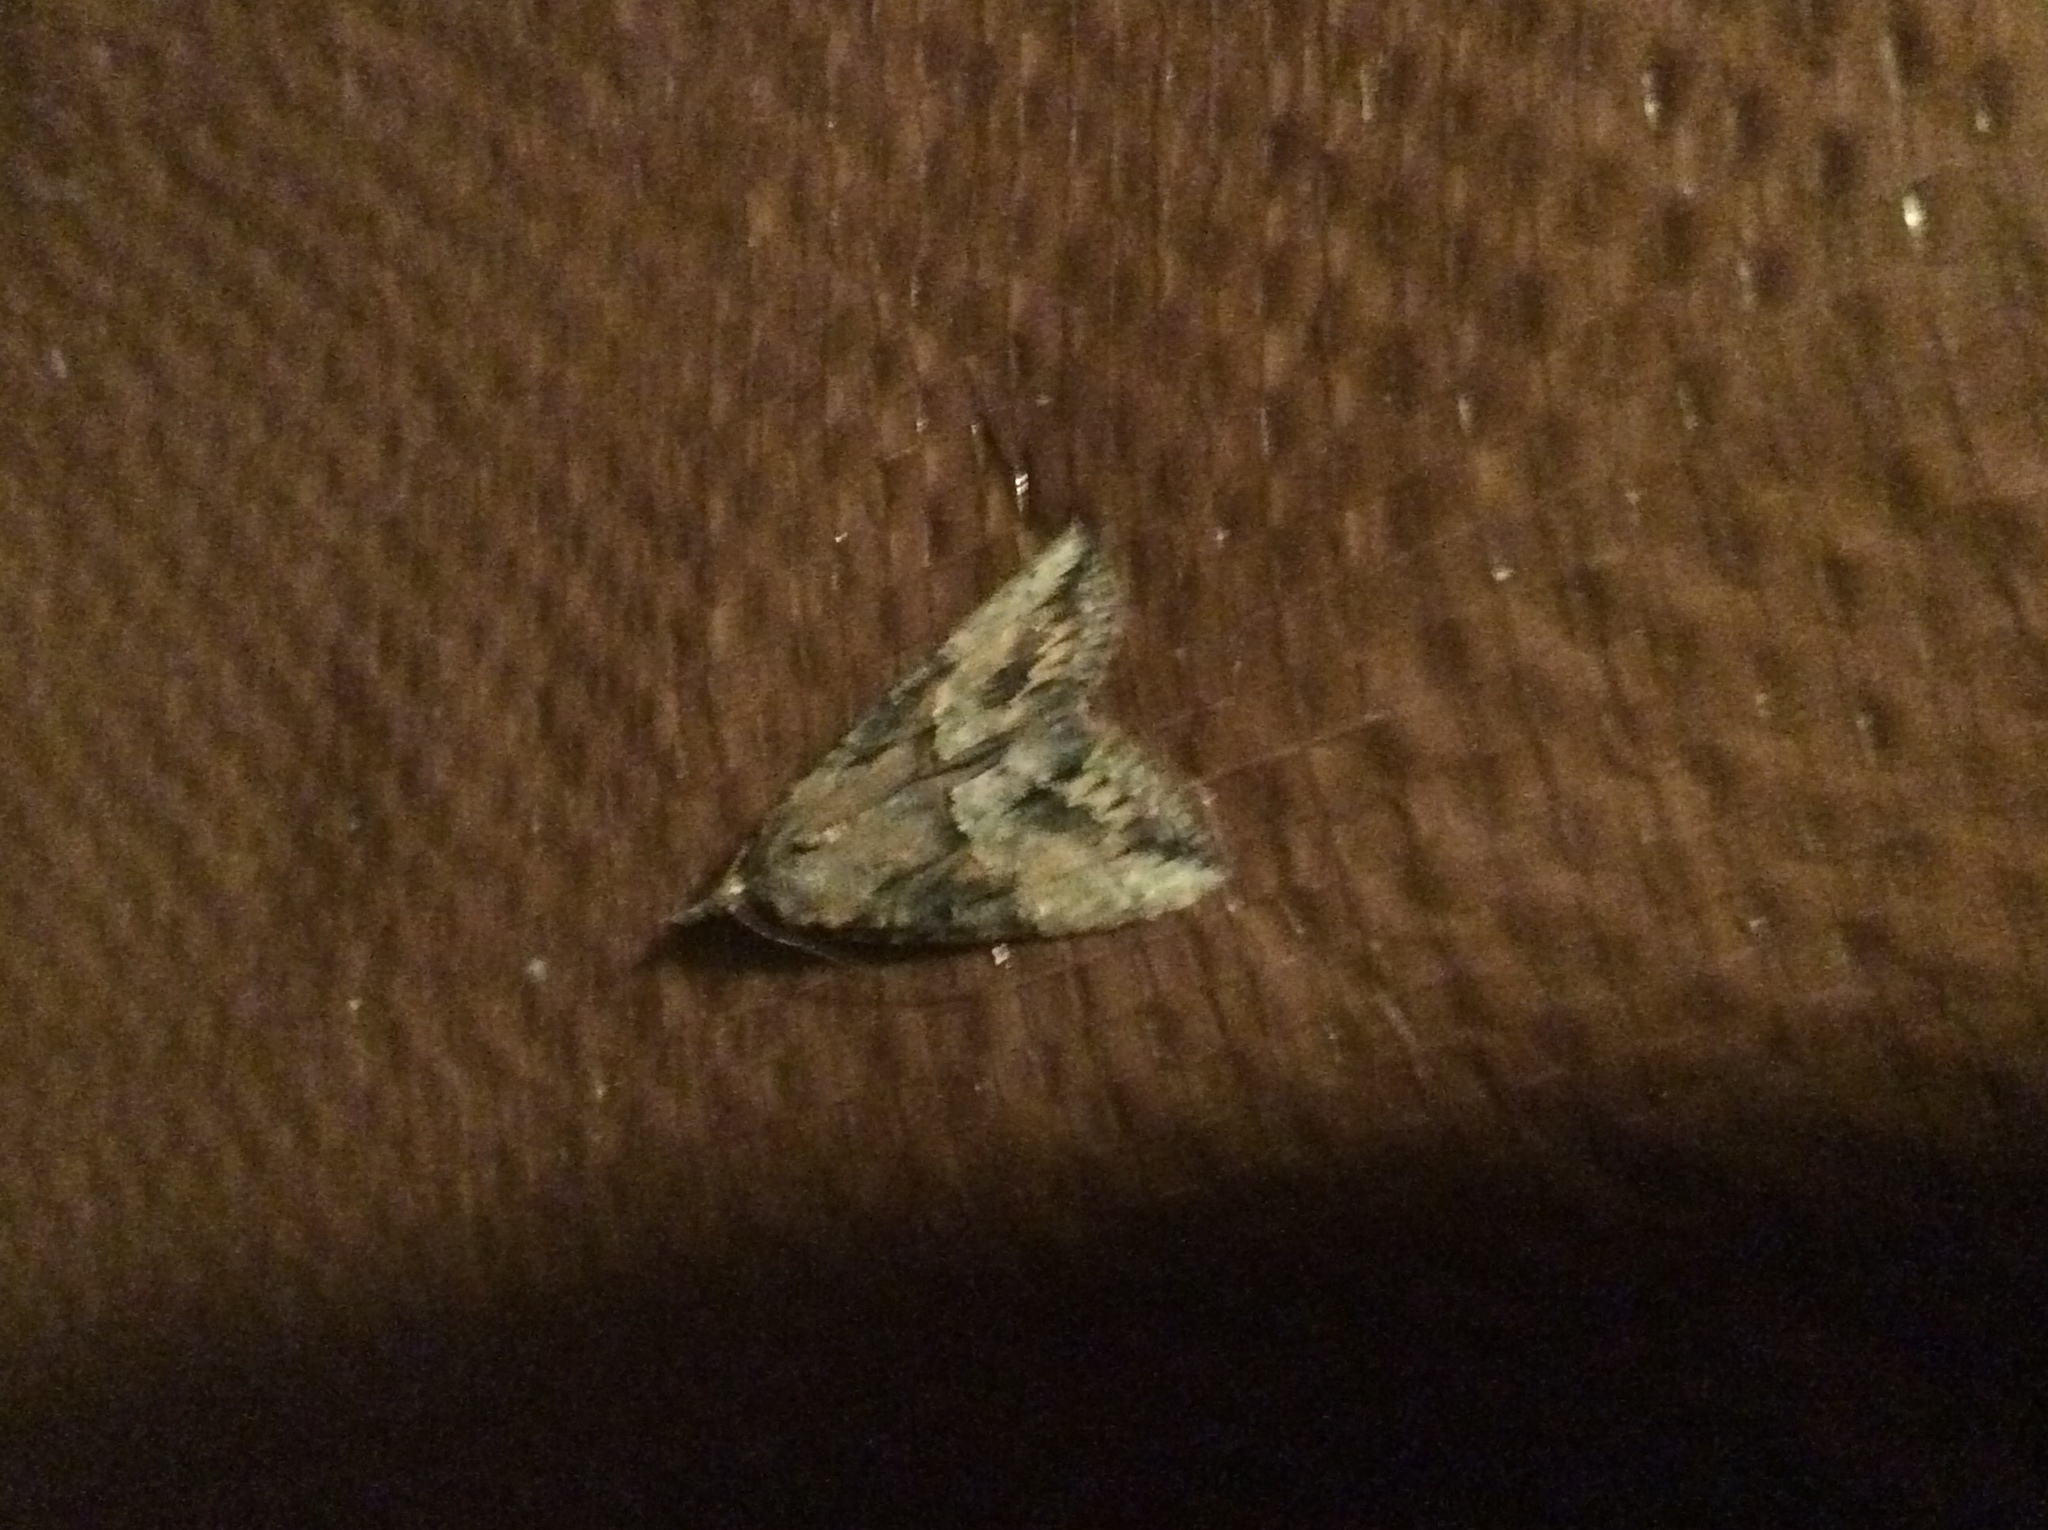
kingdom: Animalia
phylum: Arthropoda
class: Insecta
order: Lepidoptera
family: Erebidae
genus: Hypena
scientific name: Hypena scabra
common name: Green cloverworm
